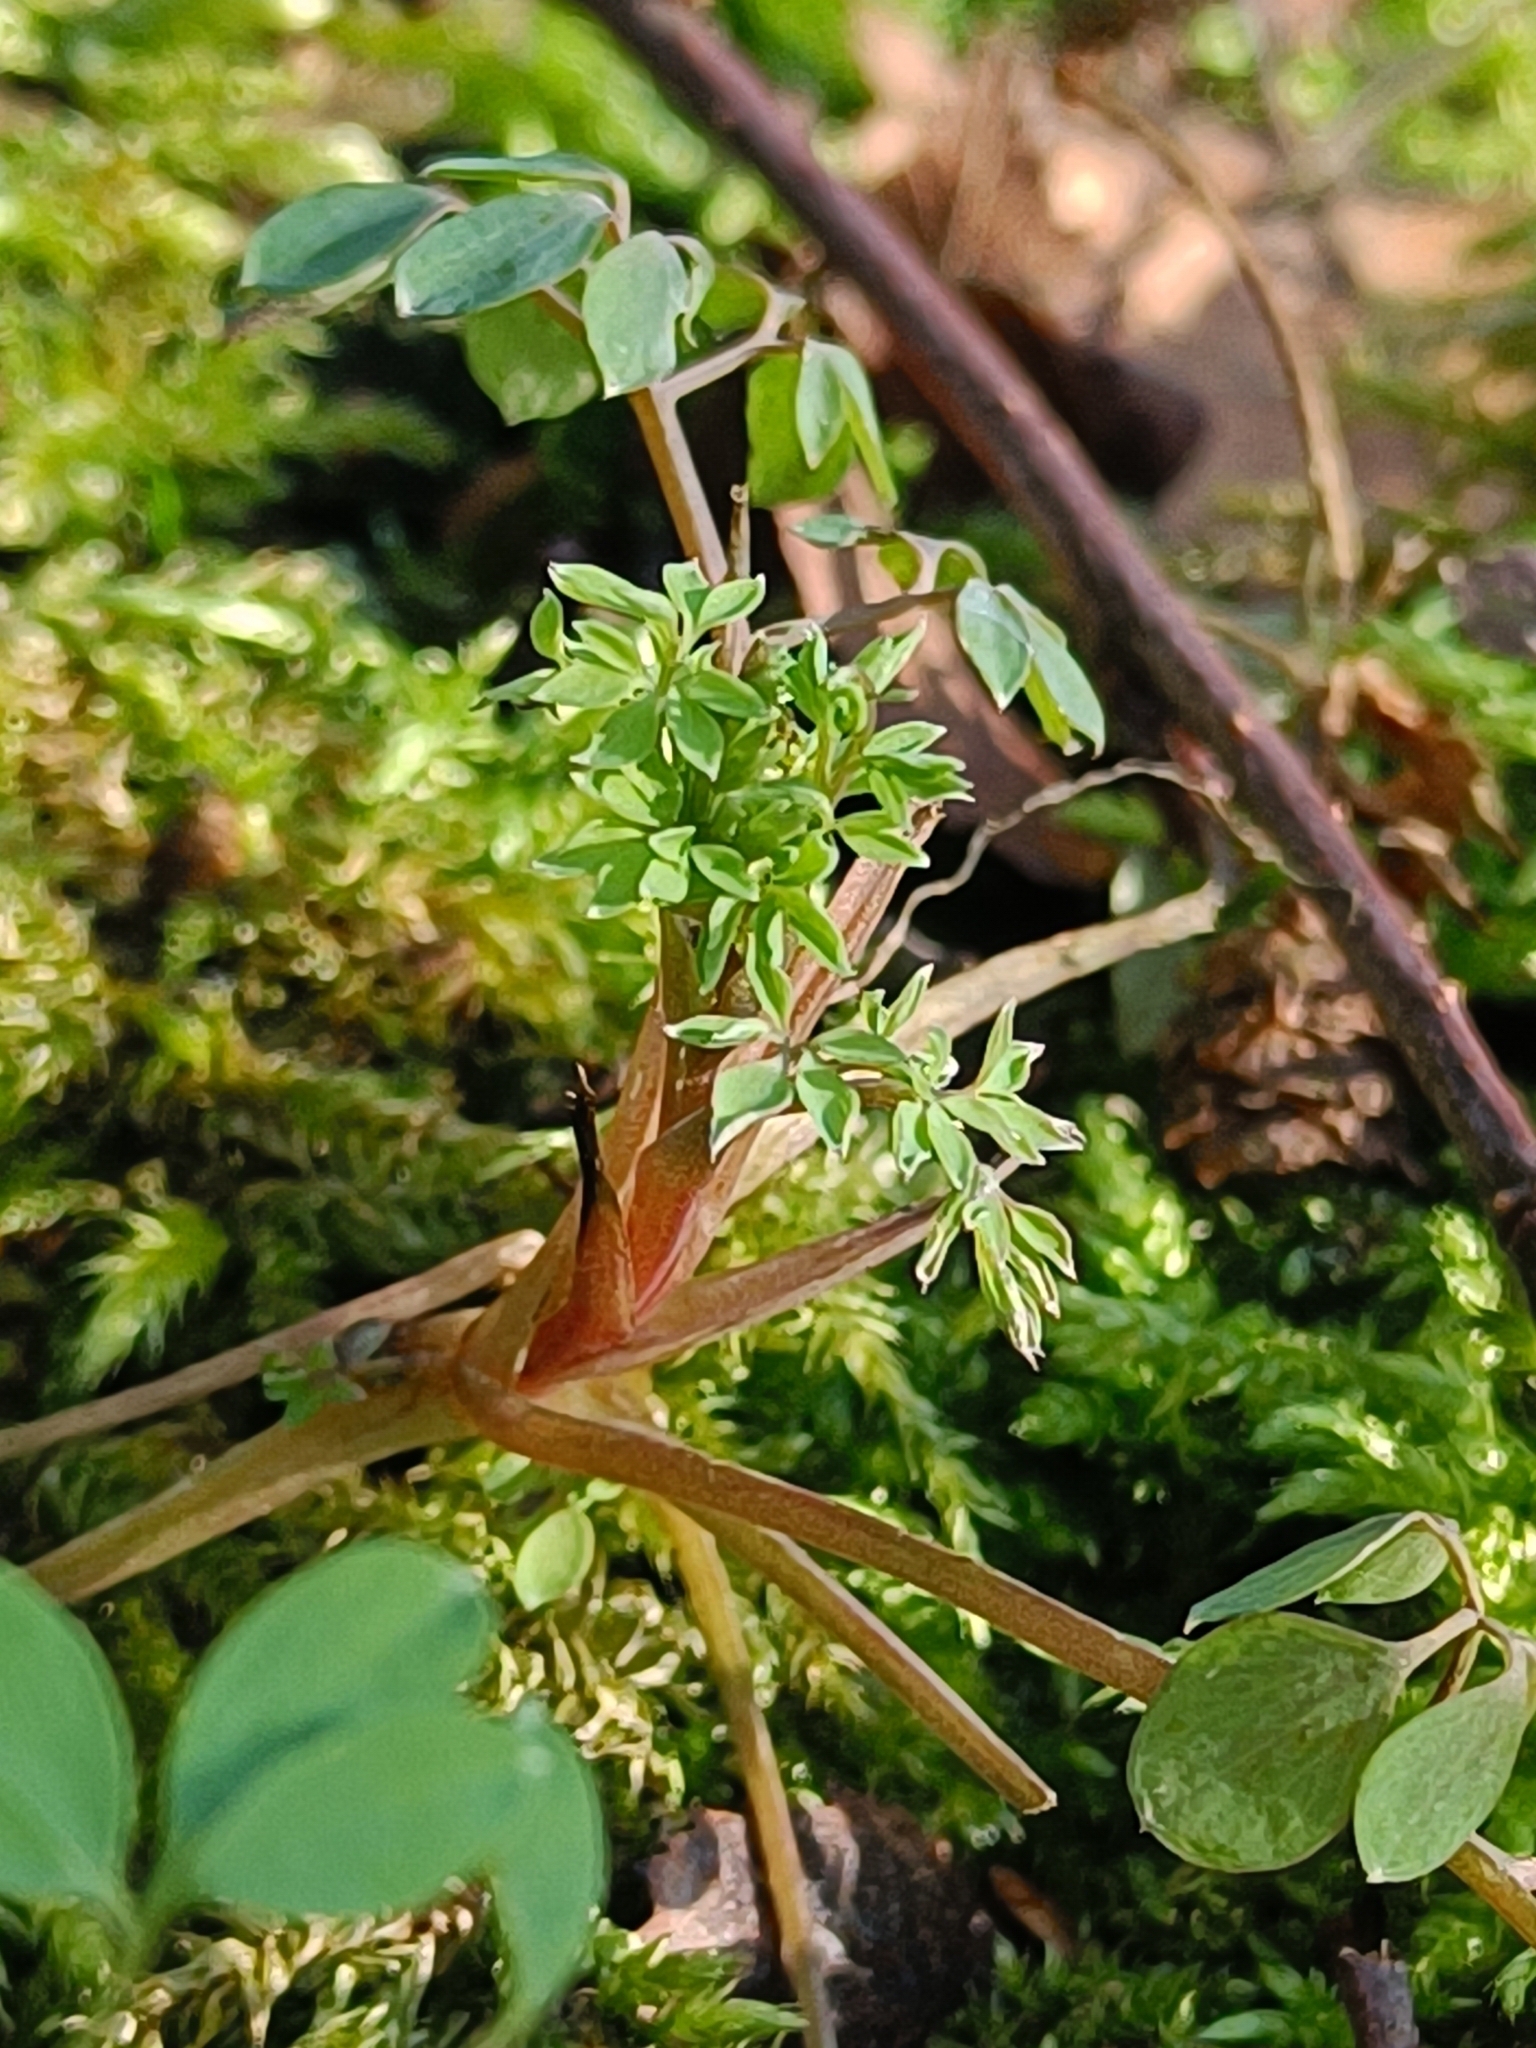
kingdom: Plantae
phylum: Tracheophyta
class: Magnoliopsida
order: Ranunculales
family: Papaveraceae
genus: Ceratocapnos
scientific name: Ceratocapnos claviculata
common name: Climbing corydalis
